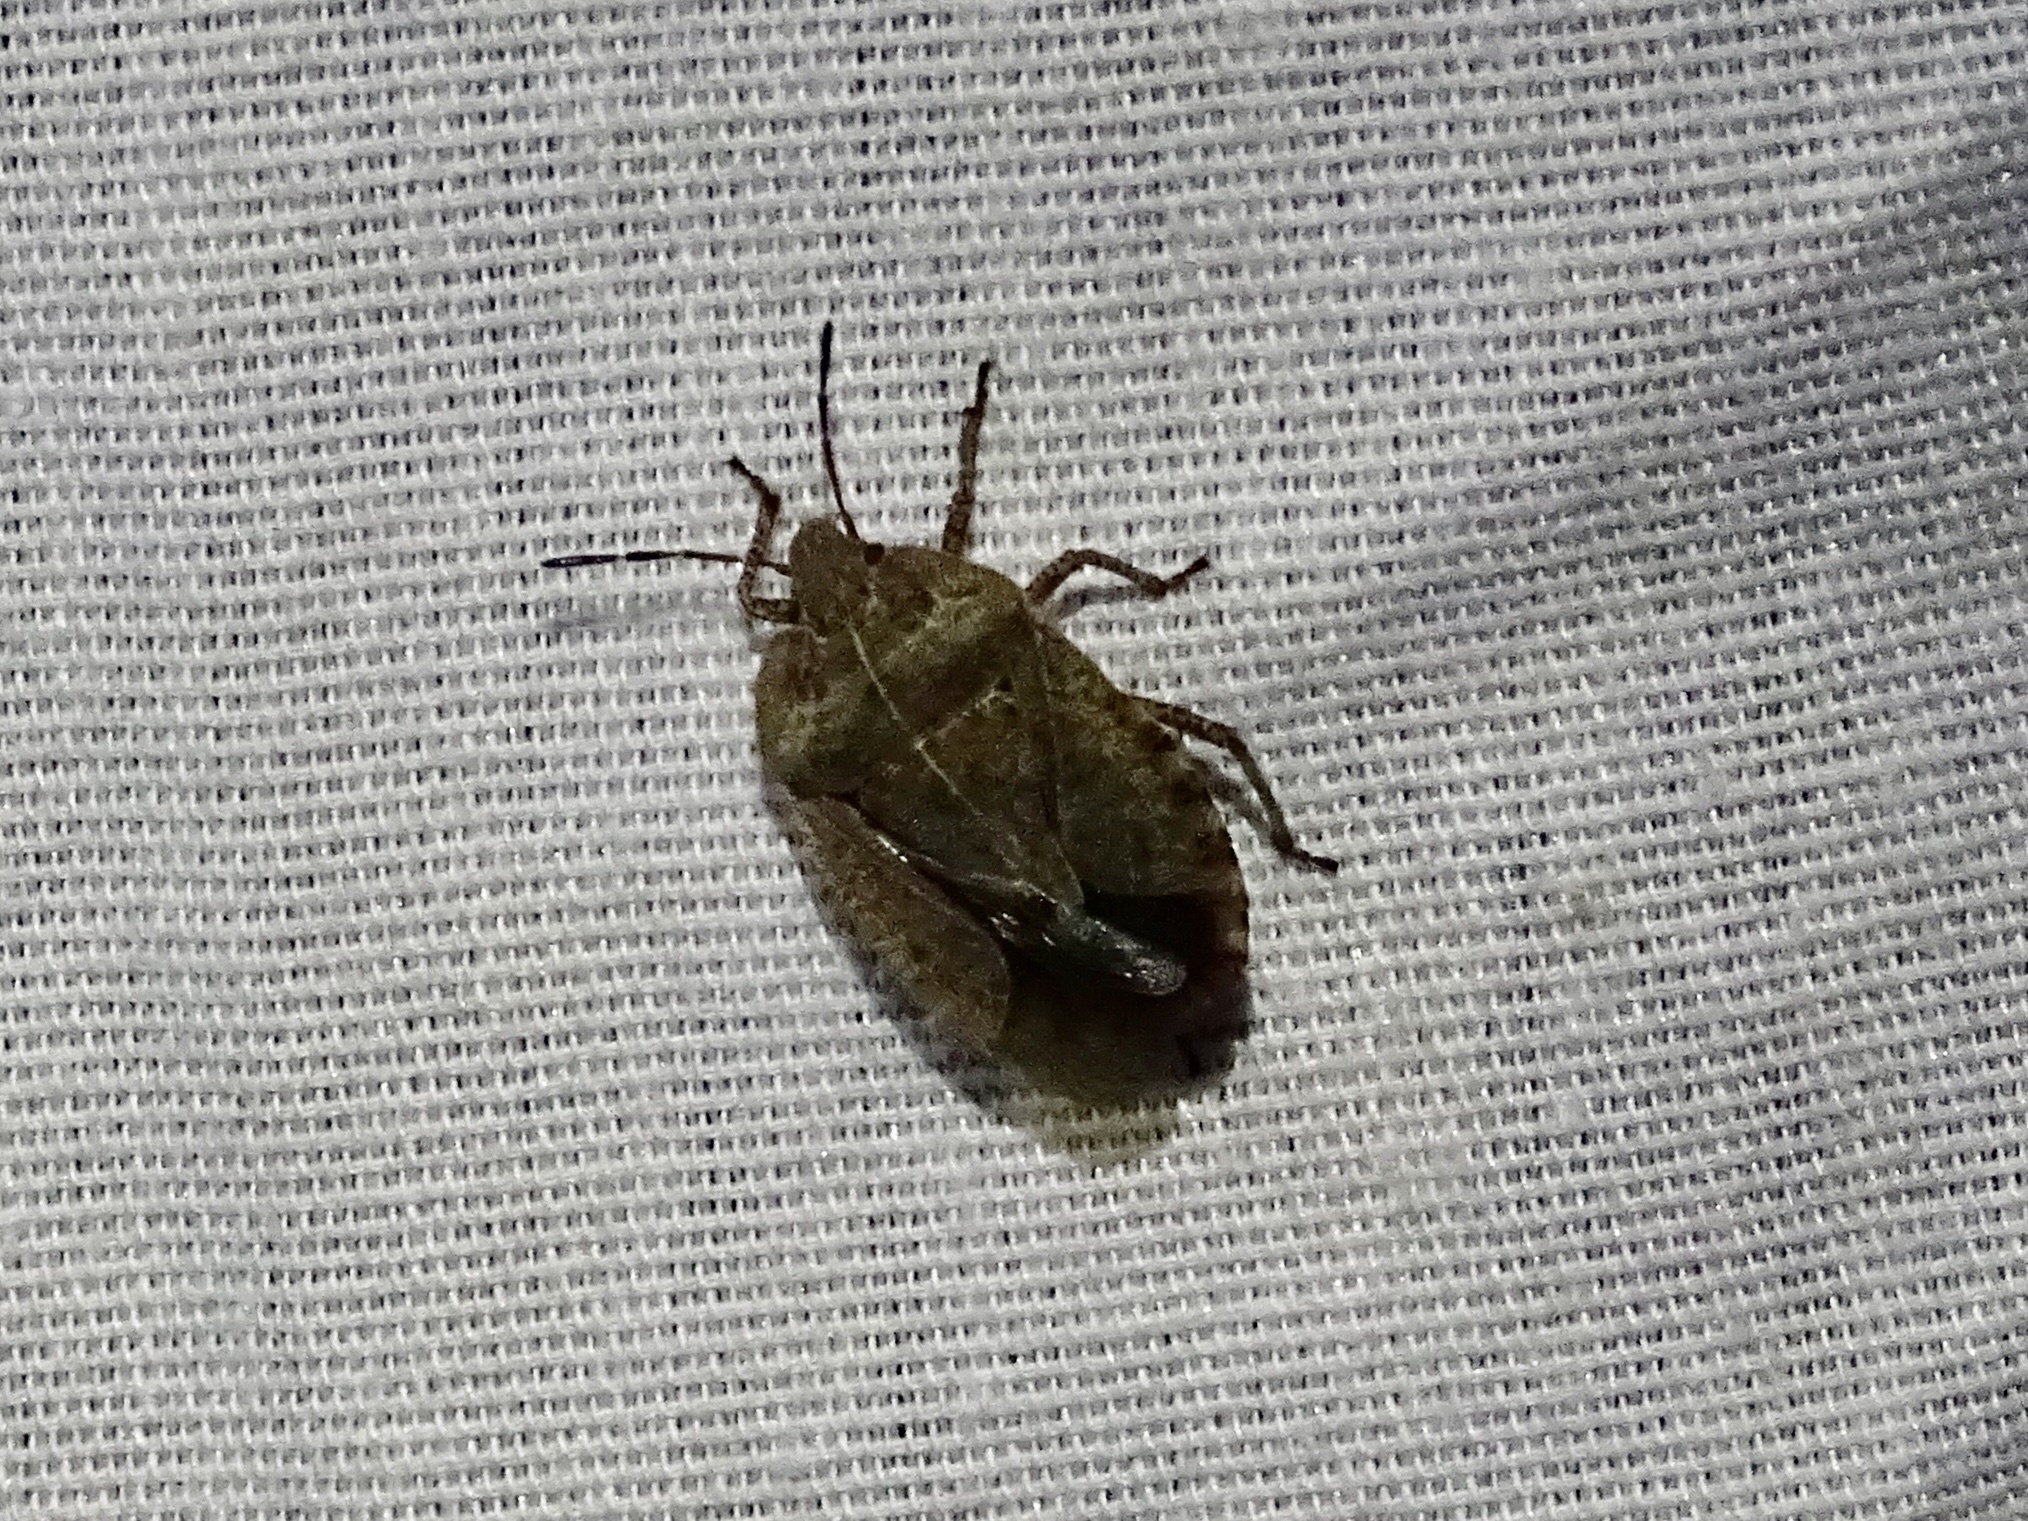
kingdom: Animalia
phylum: Arthropoda
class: Insecta
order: Hemiptera
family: Pentatomidae
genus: Menecles
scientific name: Menecles insertus
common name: Elf shoe stink bug
